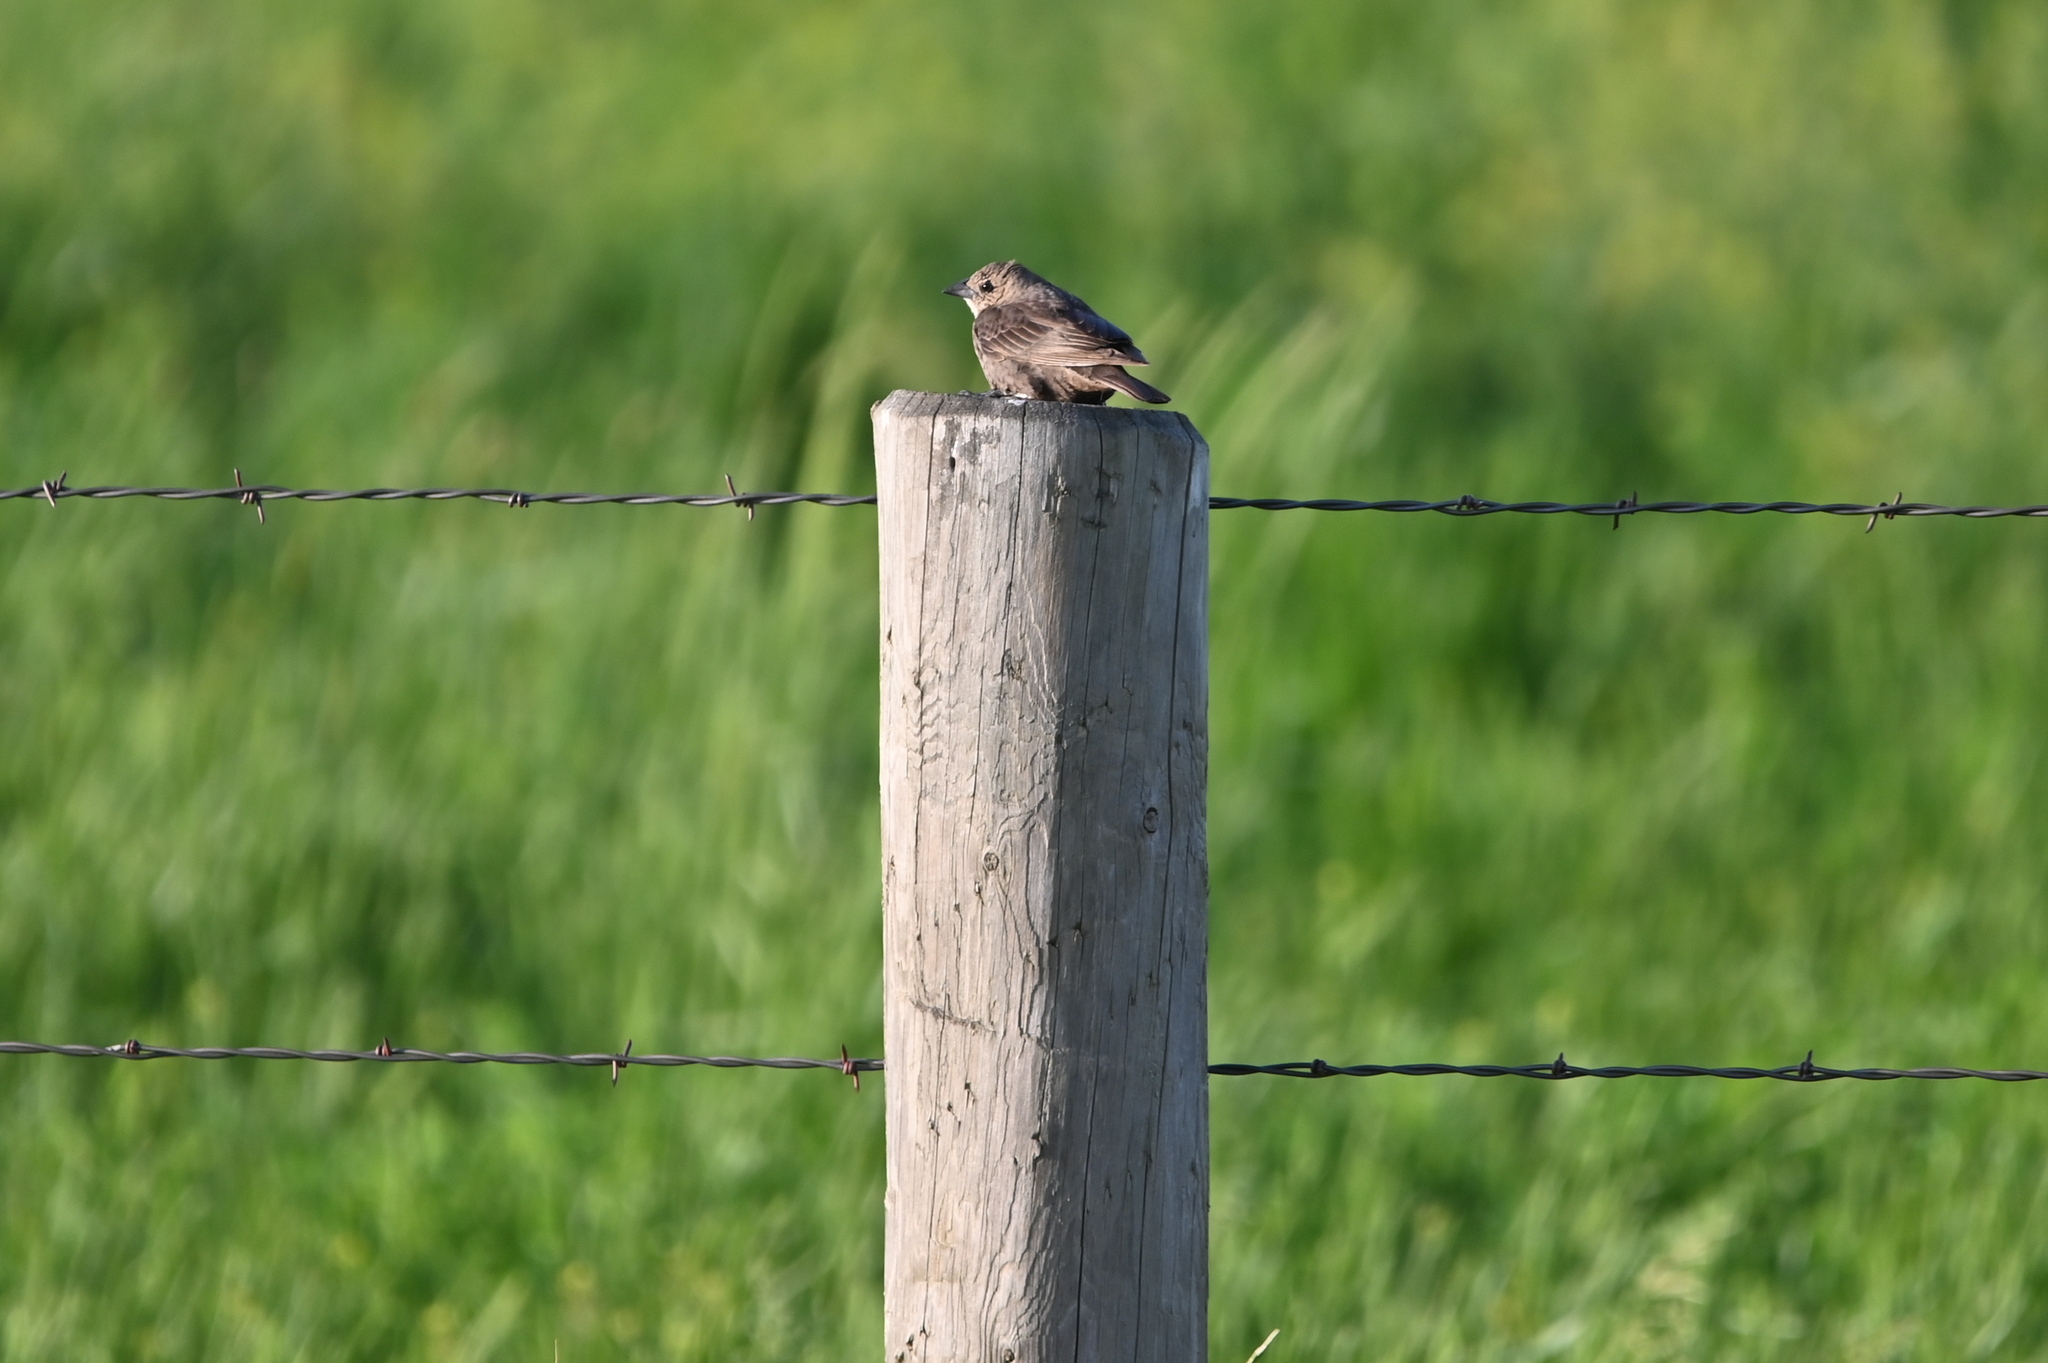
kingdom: Animalia
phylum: Chordata
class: Aves
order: Passeriformes
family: Icteridae
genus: Molothrus
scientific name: Molothrus ater
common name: Brown-headed cowbird
